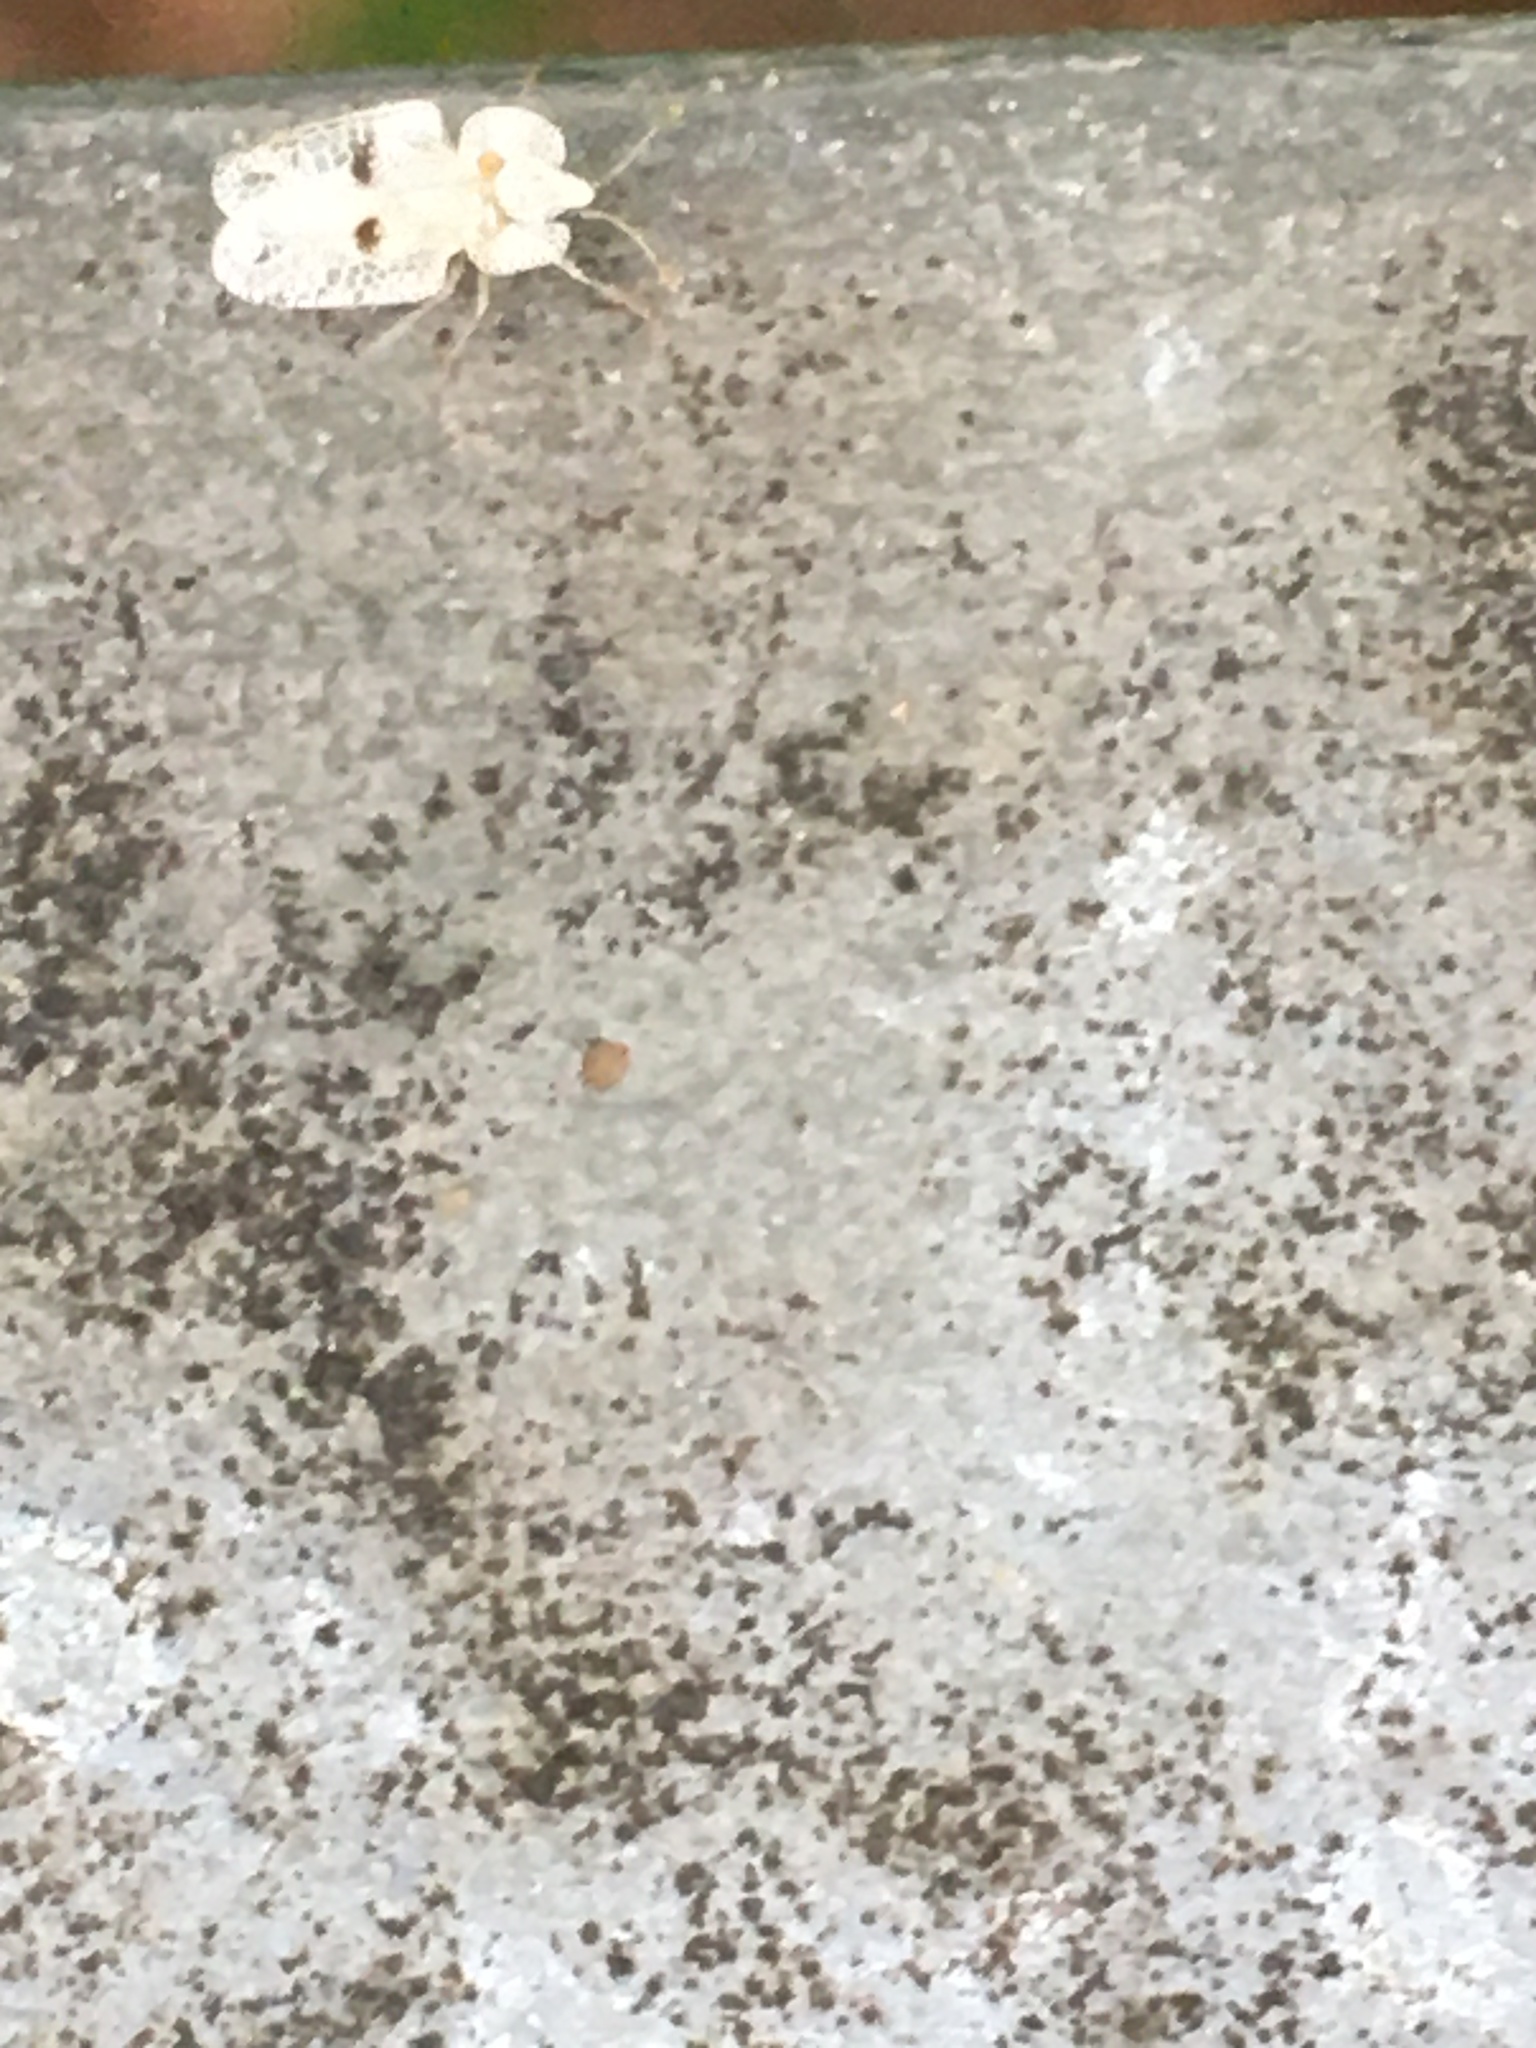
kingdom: Animalia
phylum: Arthropoda
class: Insecta
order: Hemiptera
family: Tingidae
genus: Corythucha
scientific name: Corythucha ciliata
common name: Sycamore lace bug
